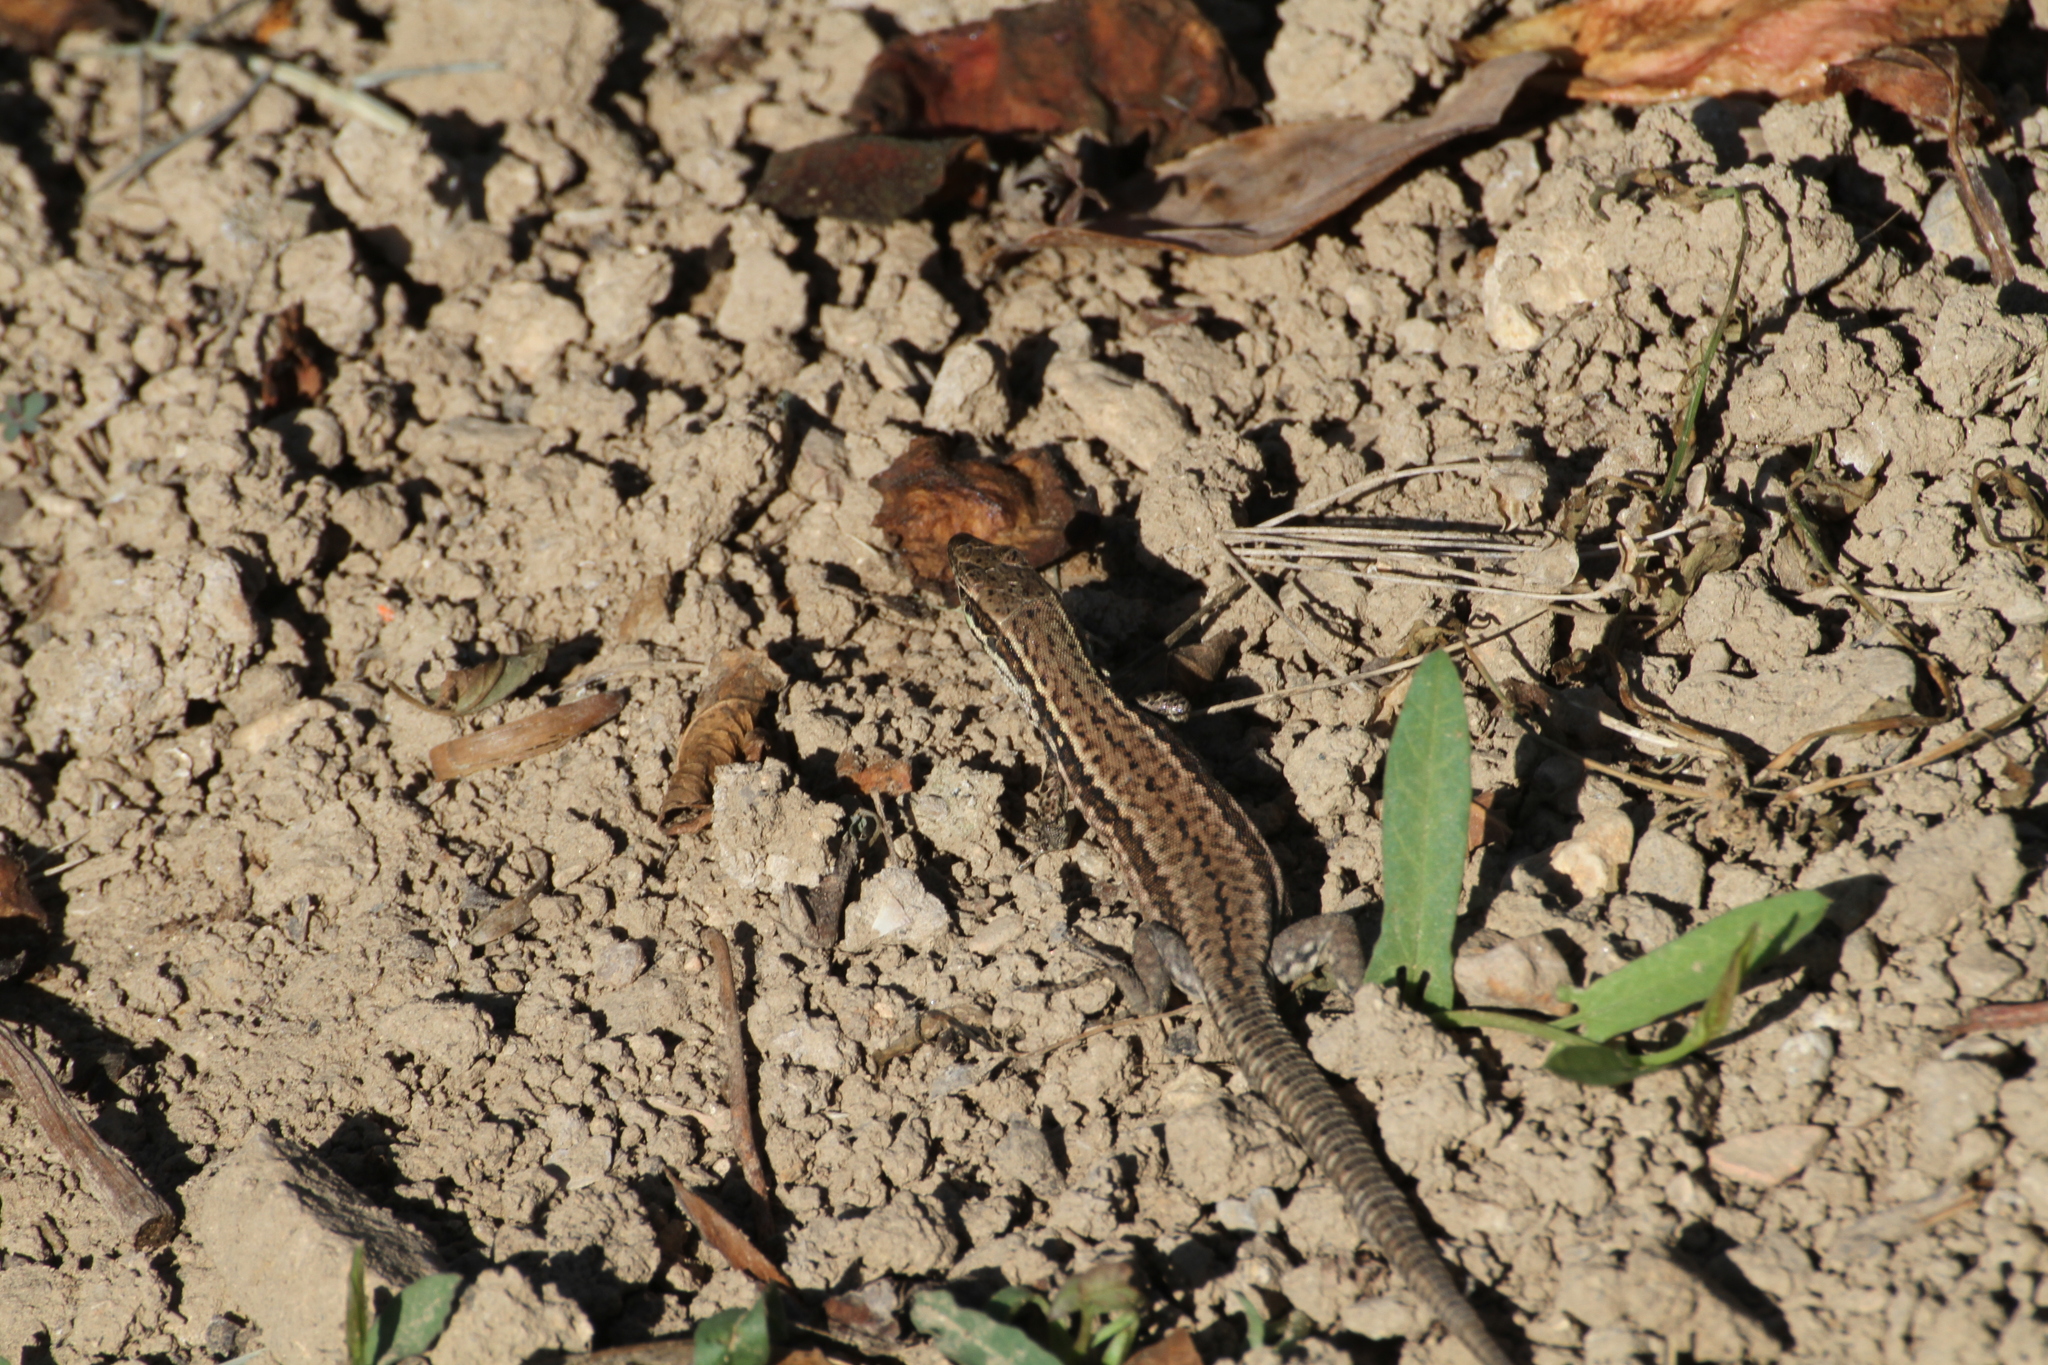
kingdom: Animalia
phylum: Chordata
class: Squamata
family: Lacertidae
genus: Podarcis
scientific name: Podarcis muralis
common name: Common wall lizard
